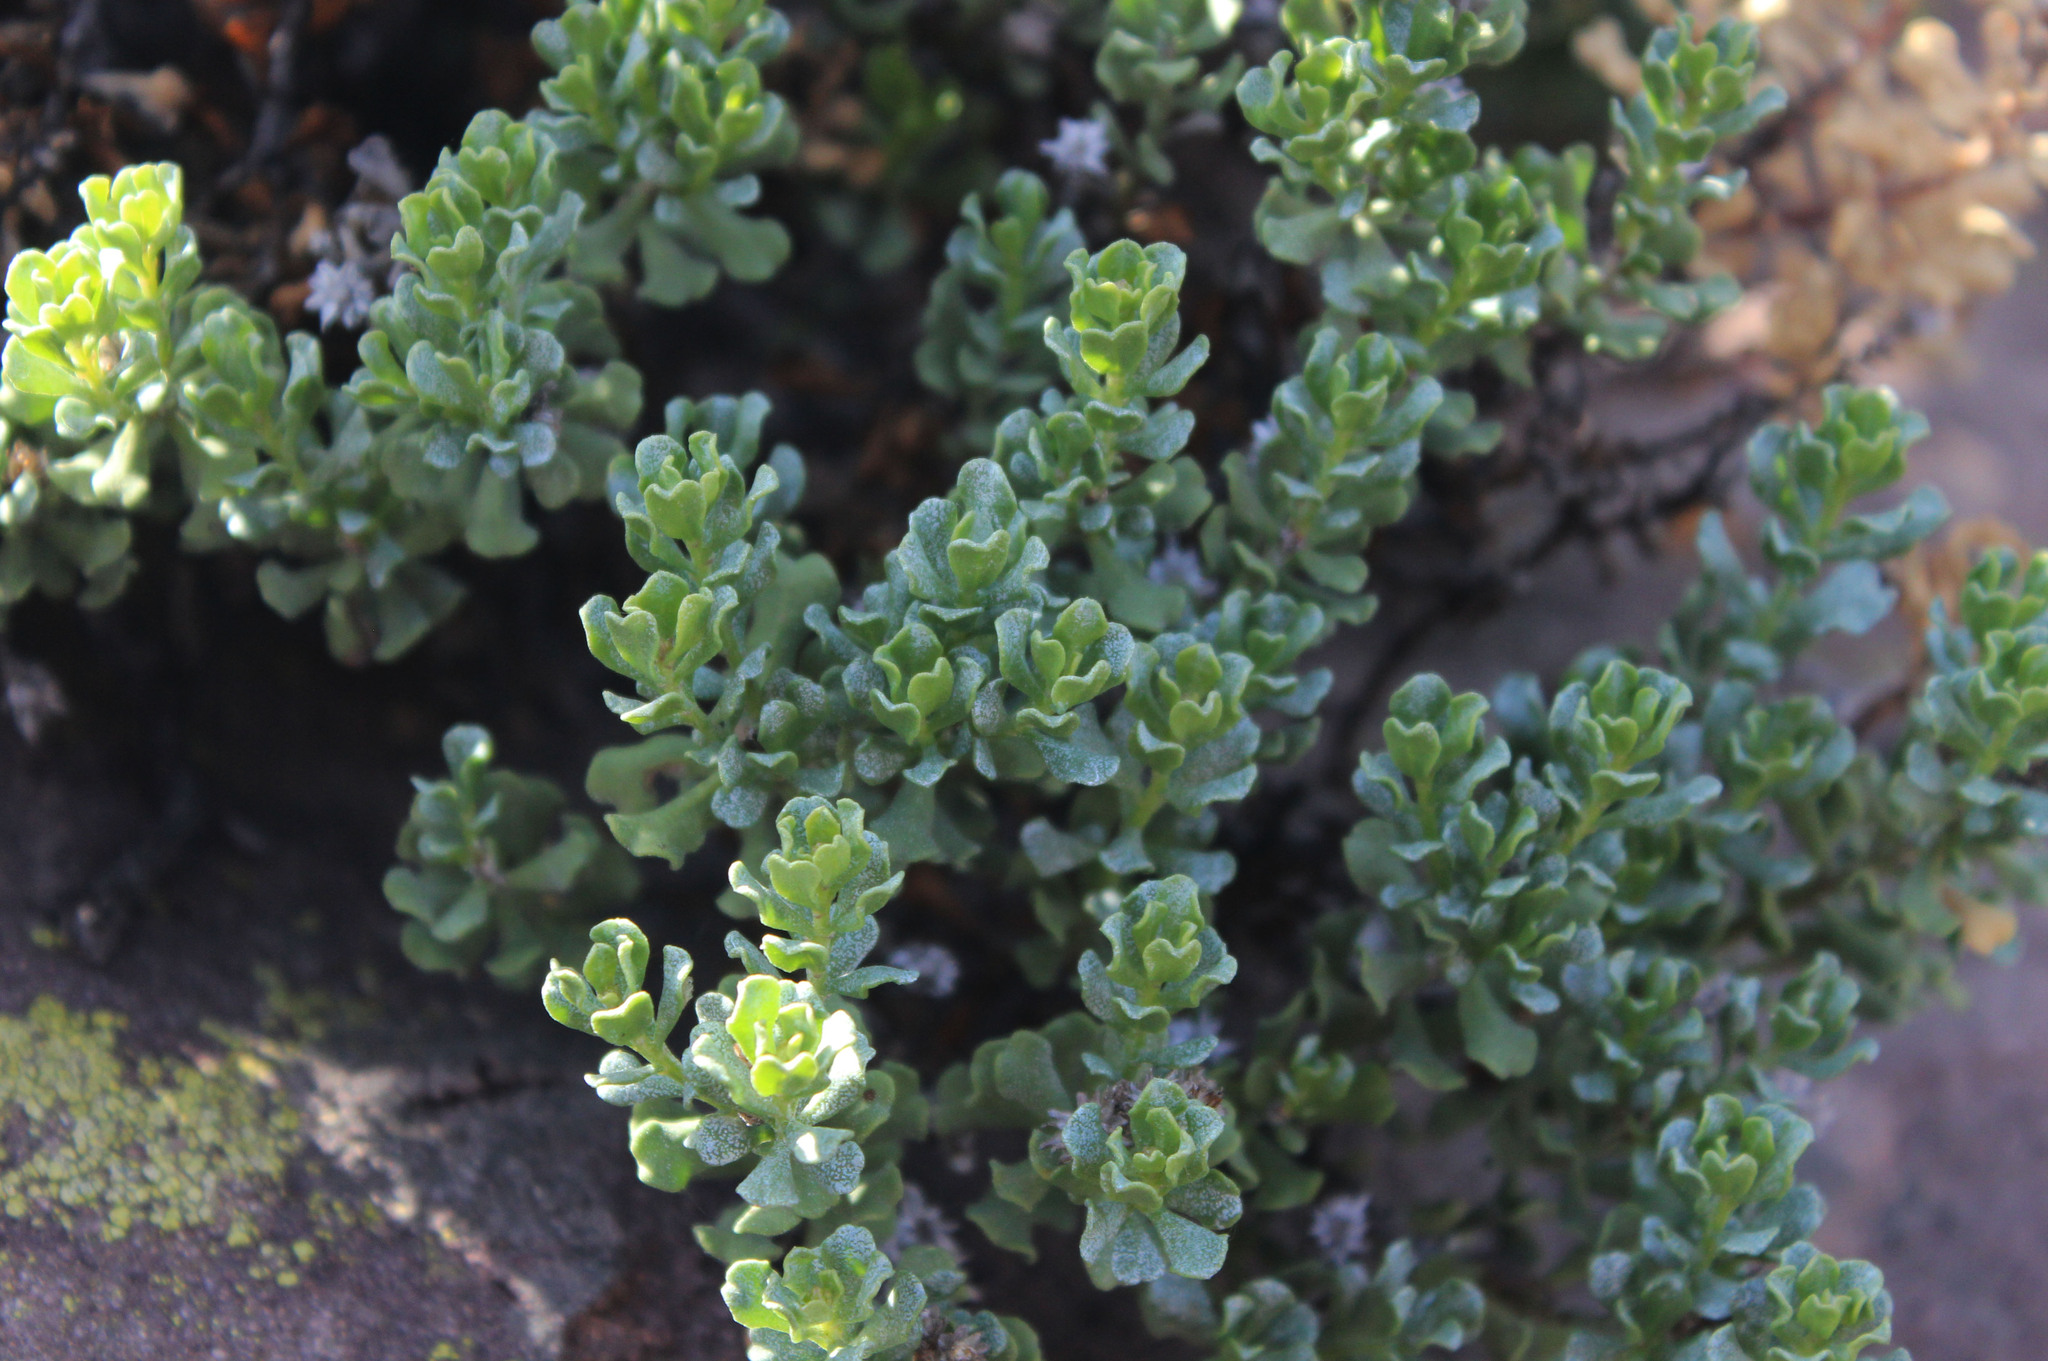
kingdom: Plantae
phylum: Tracheophyta
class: Magnoliopsida
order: Asterales
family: Asteraceae
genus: Ericameria
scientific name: Ericameria cuneata
